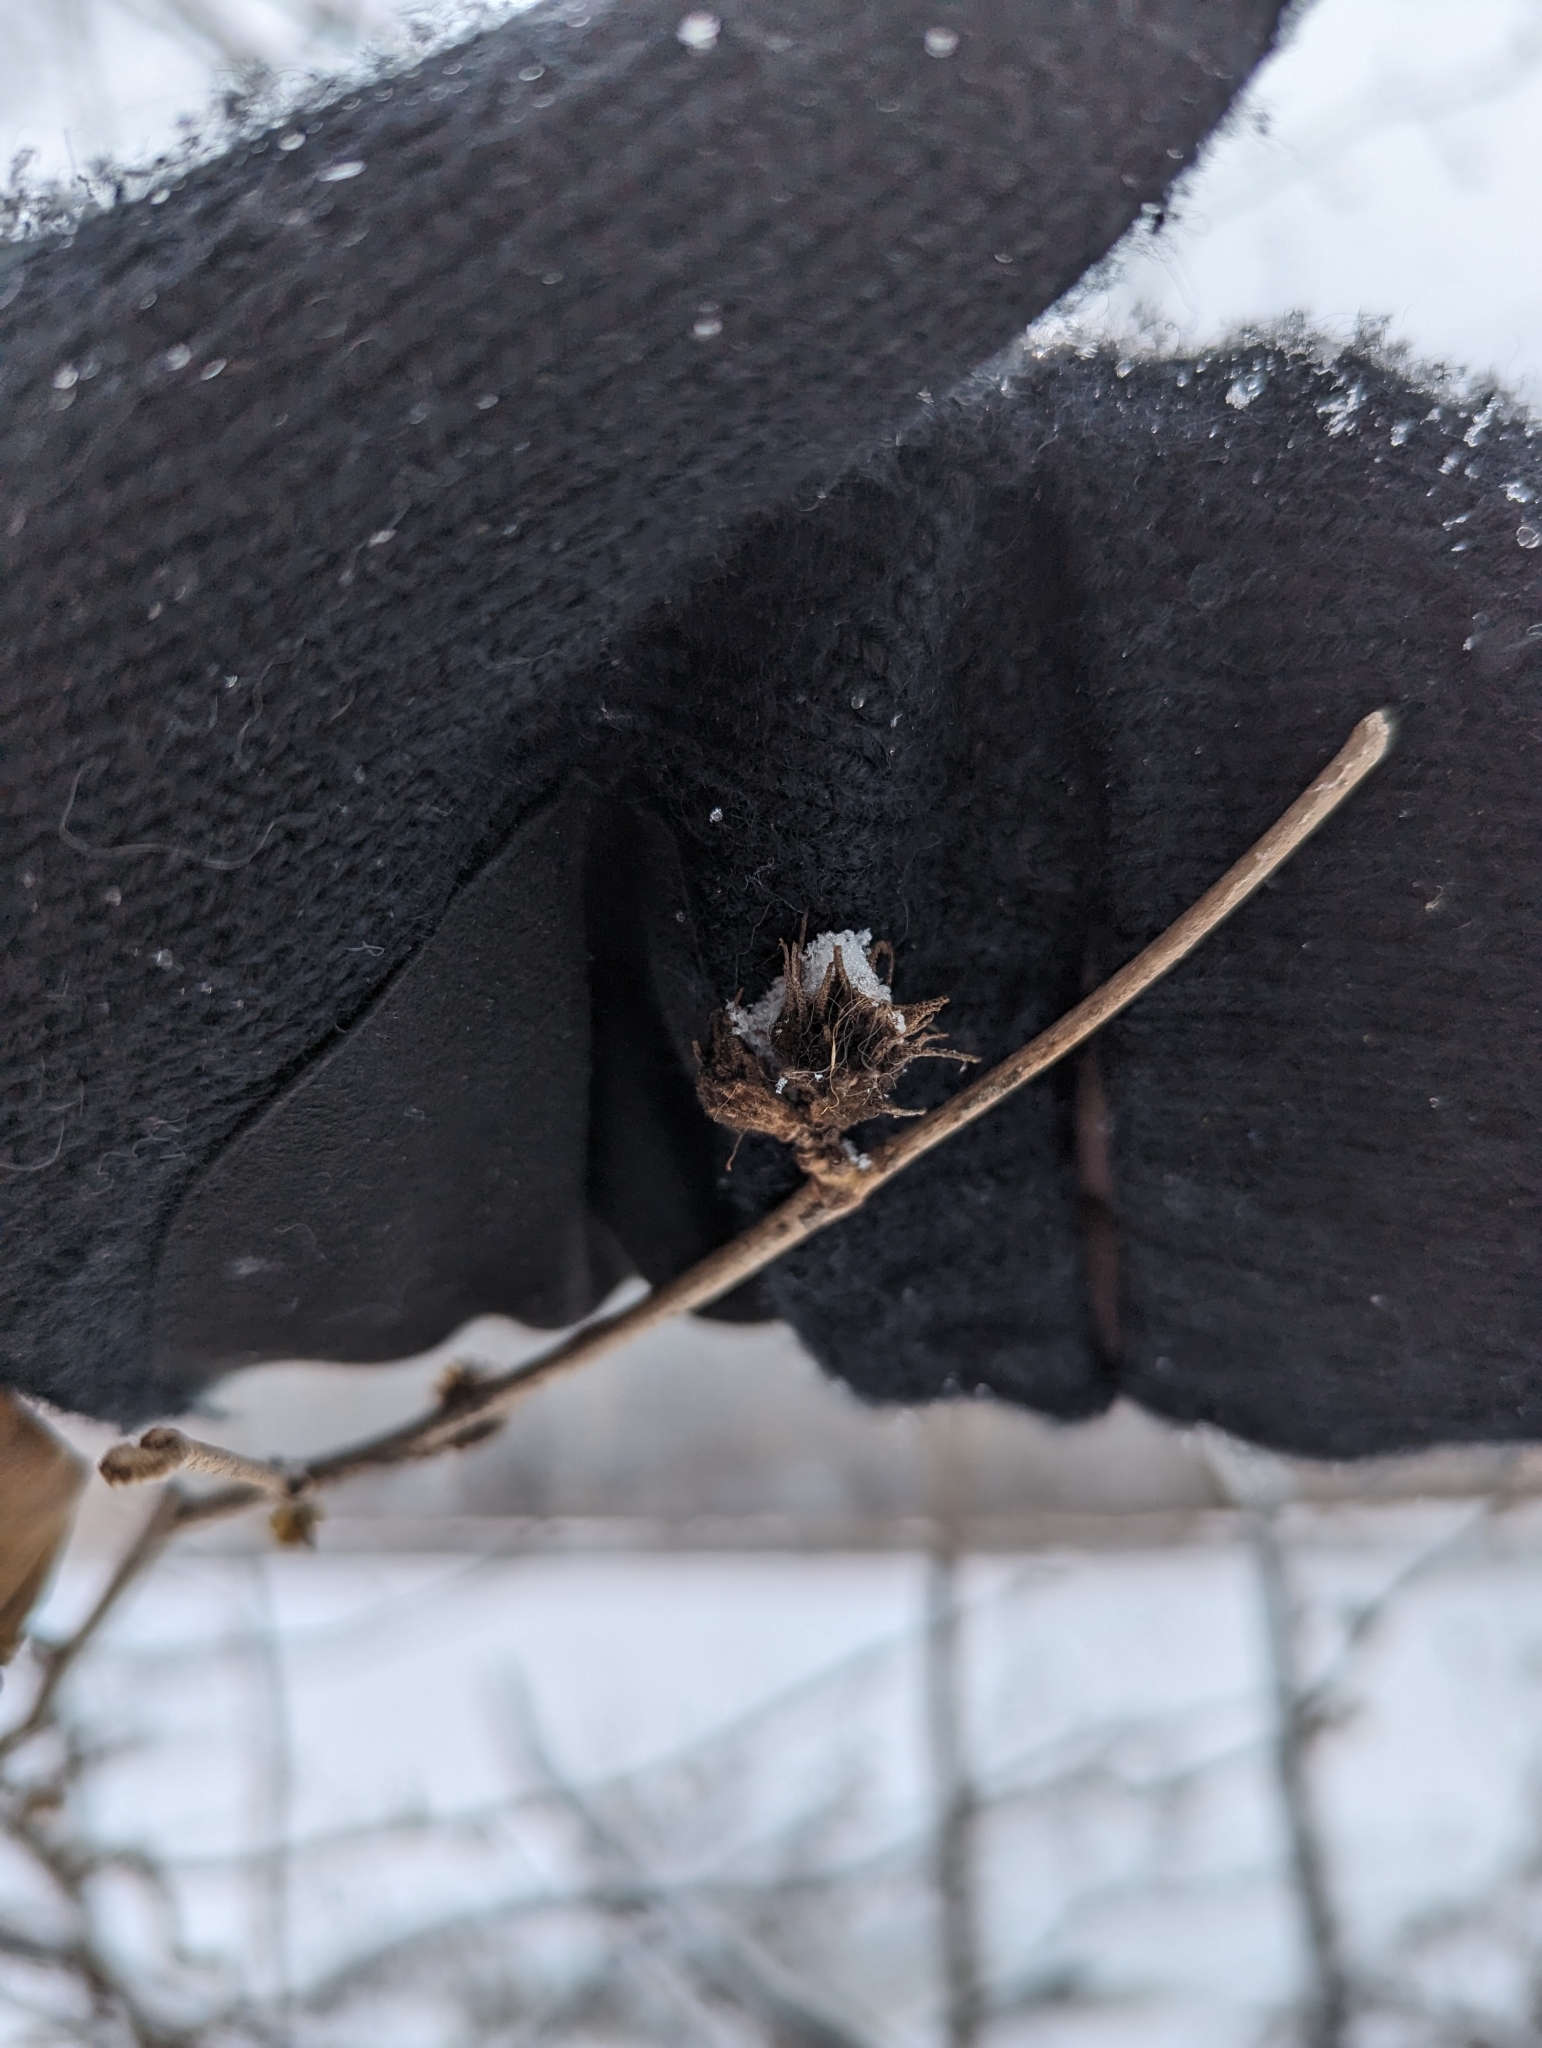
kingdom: Animalia
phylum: Arthropoda
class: Insecta
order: Hemiptera
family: Aphididae
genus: Hamamelistes
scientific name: Hamamelistes spinosus
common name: Witch hazel gall aphid
